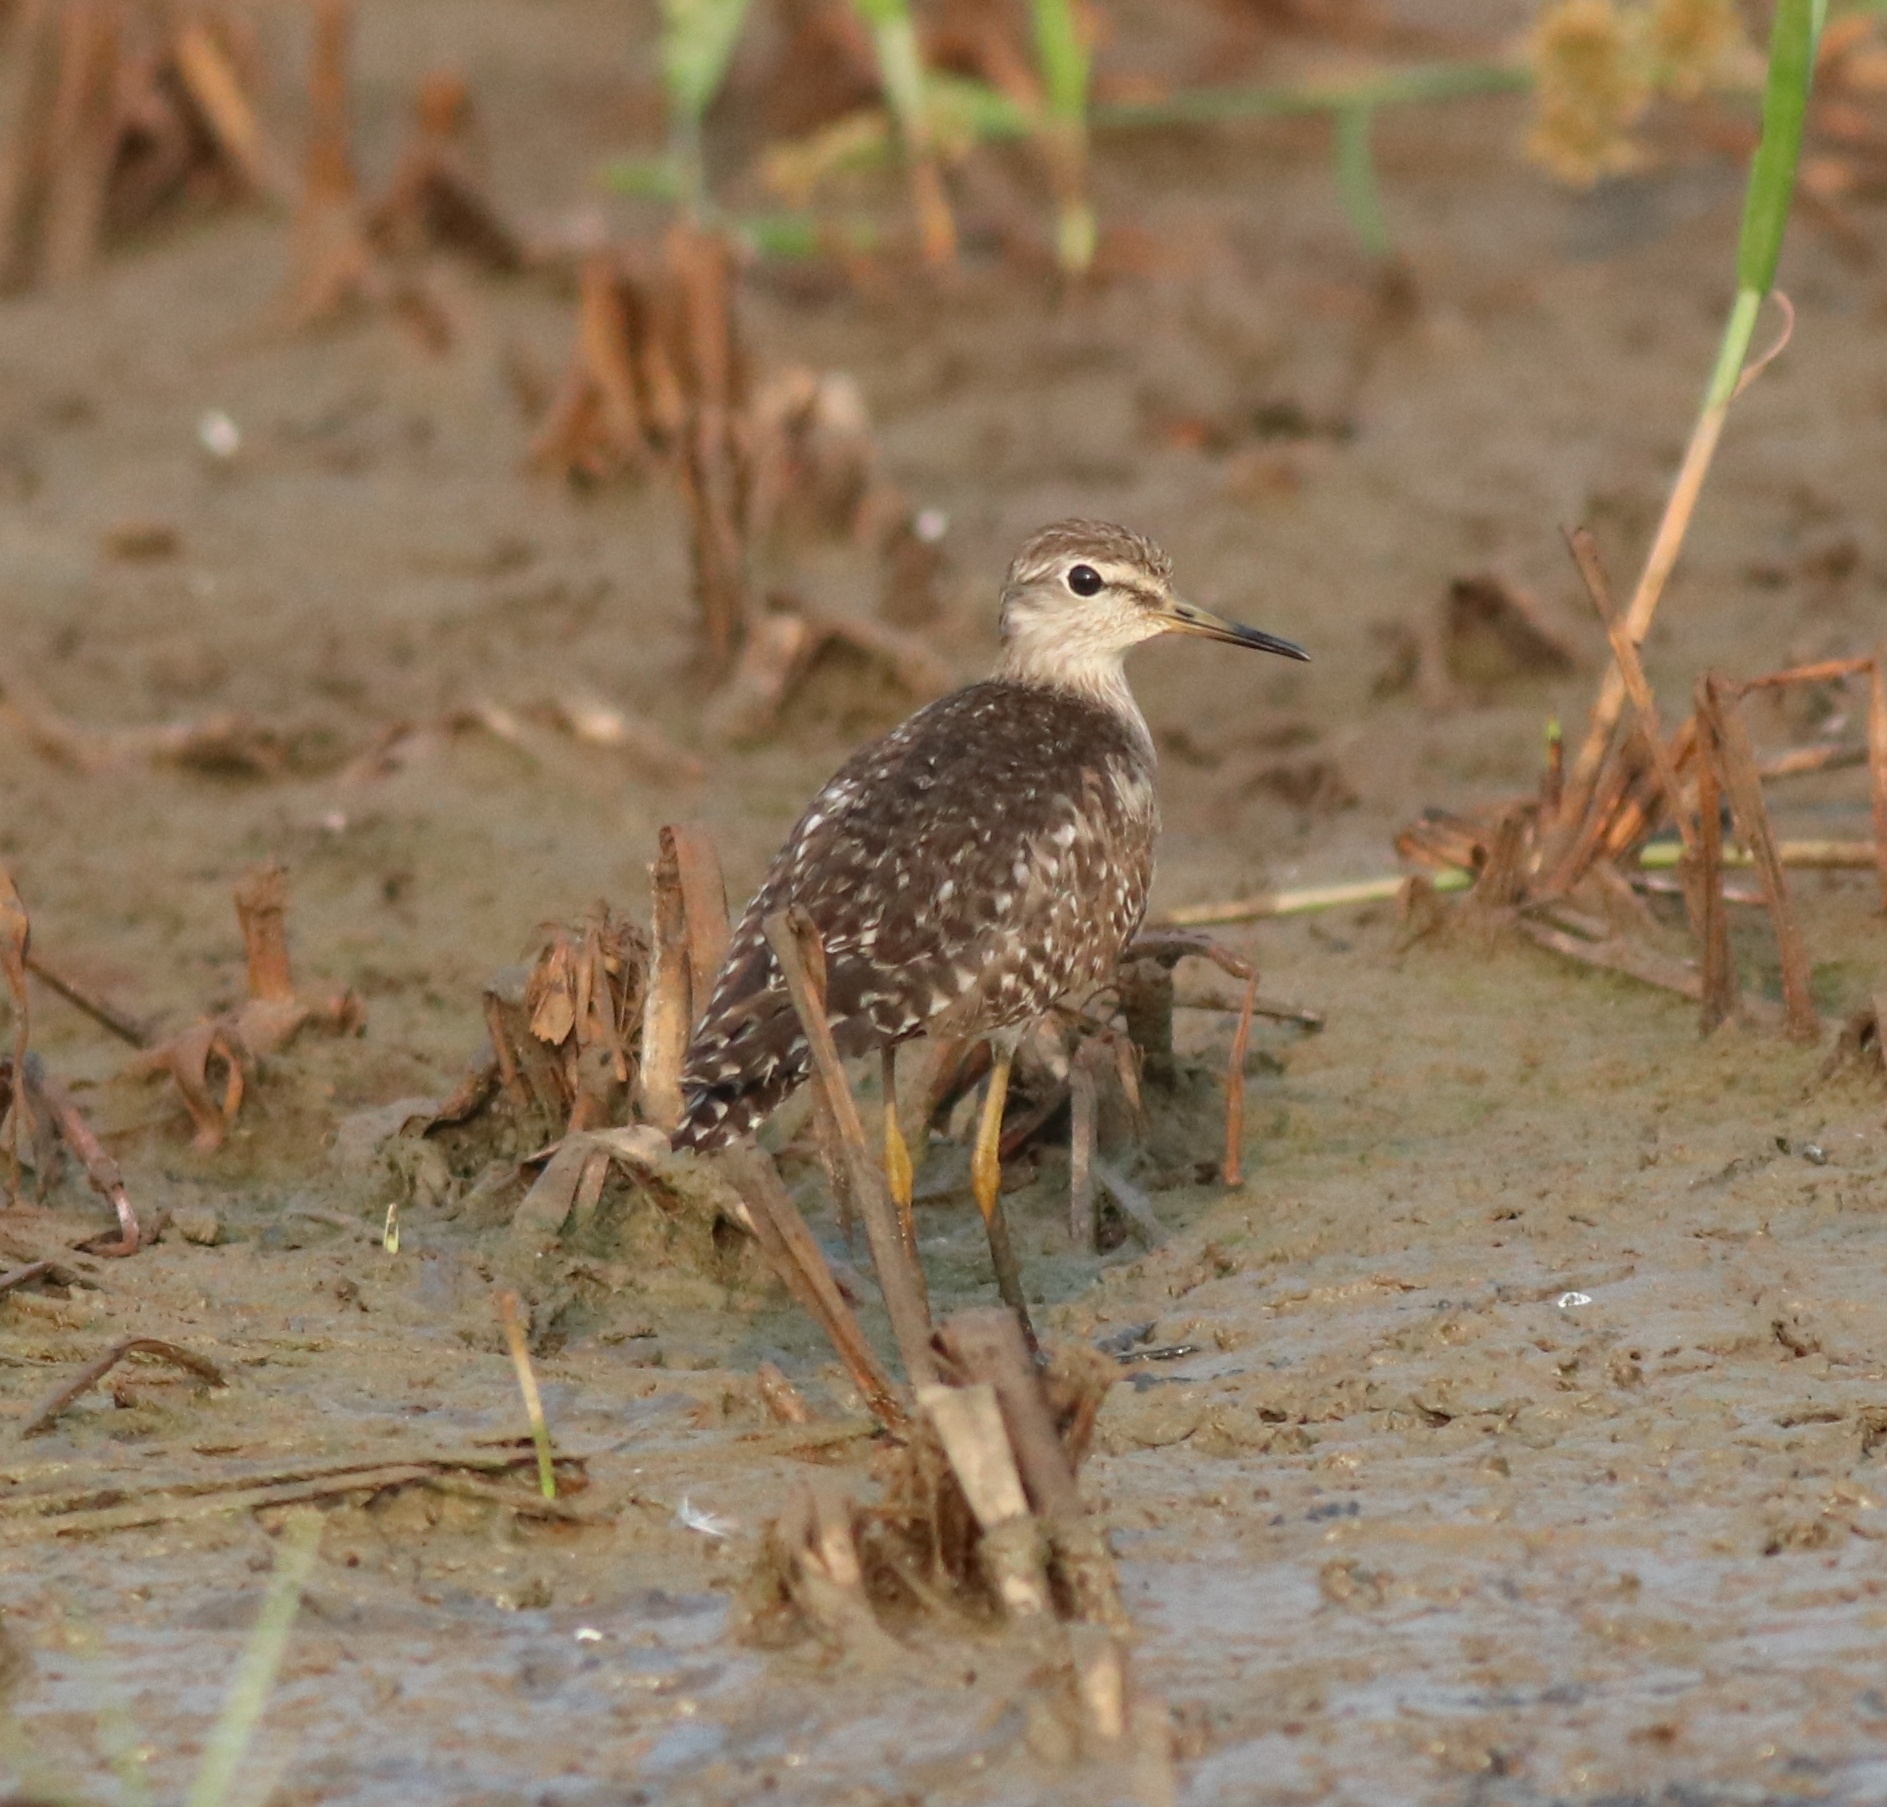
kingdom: Animalia
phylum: Chordata
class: Aves
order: Charadriiformes
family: Scolopacidae
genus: Tringa
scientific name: Tringa glareola
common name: Wood sandpiper
